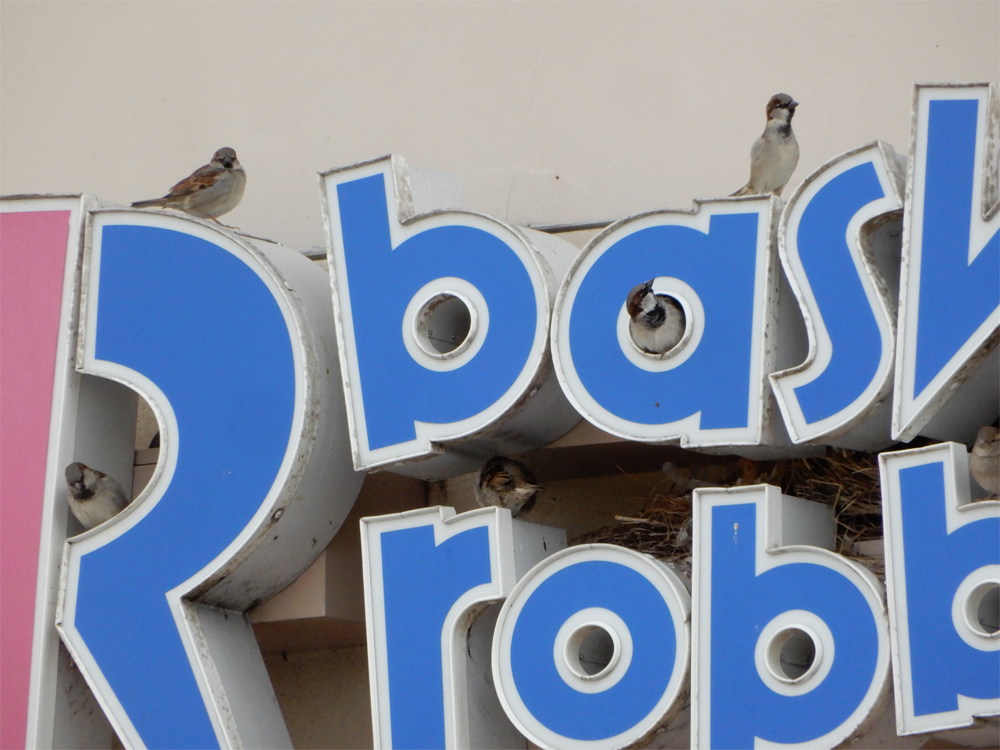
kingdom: Animalia
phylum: Chordata
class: Aves
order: Passeriformes
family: Passeridae
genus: Passer
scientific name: Passer domesticus
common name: House sparrow
